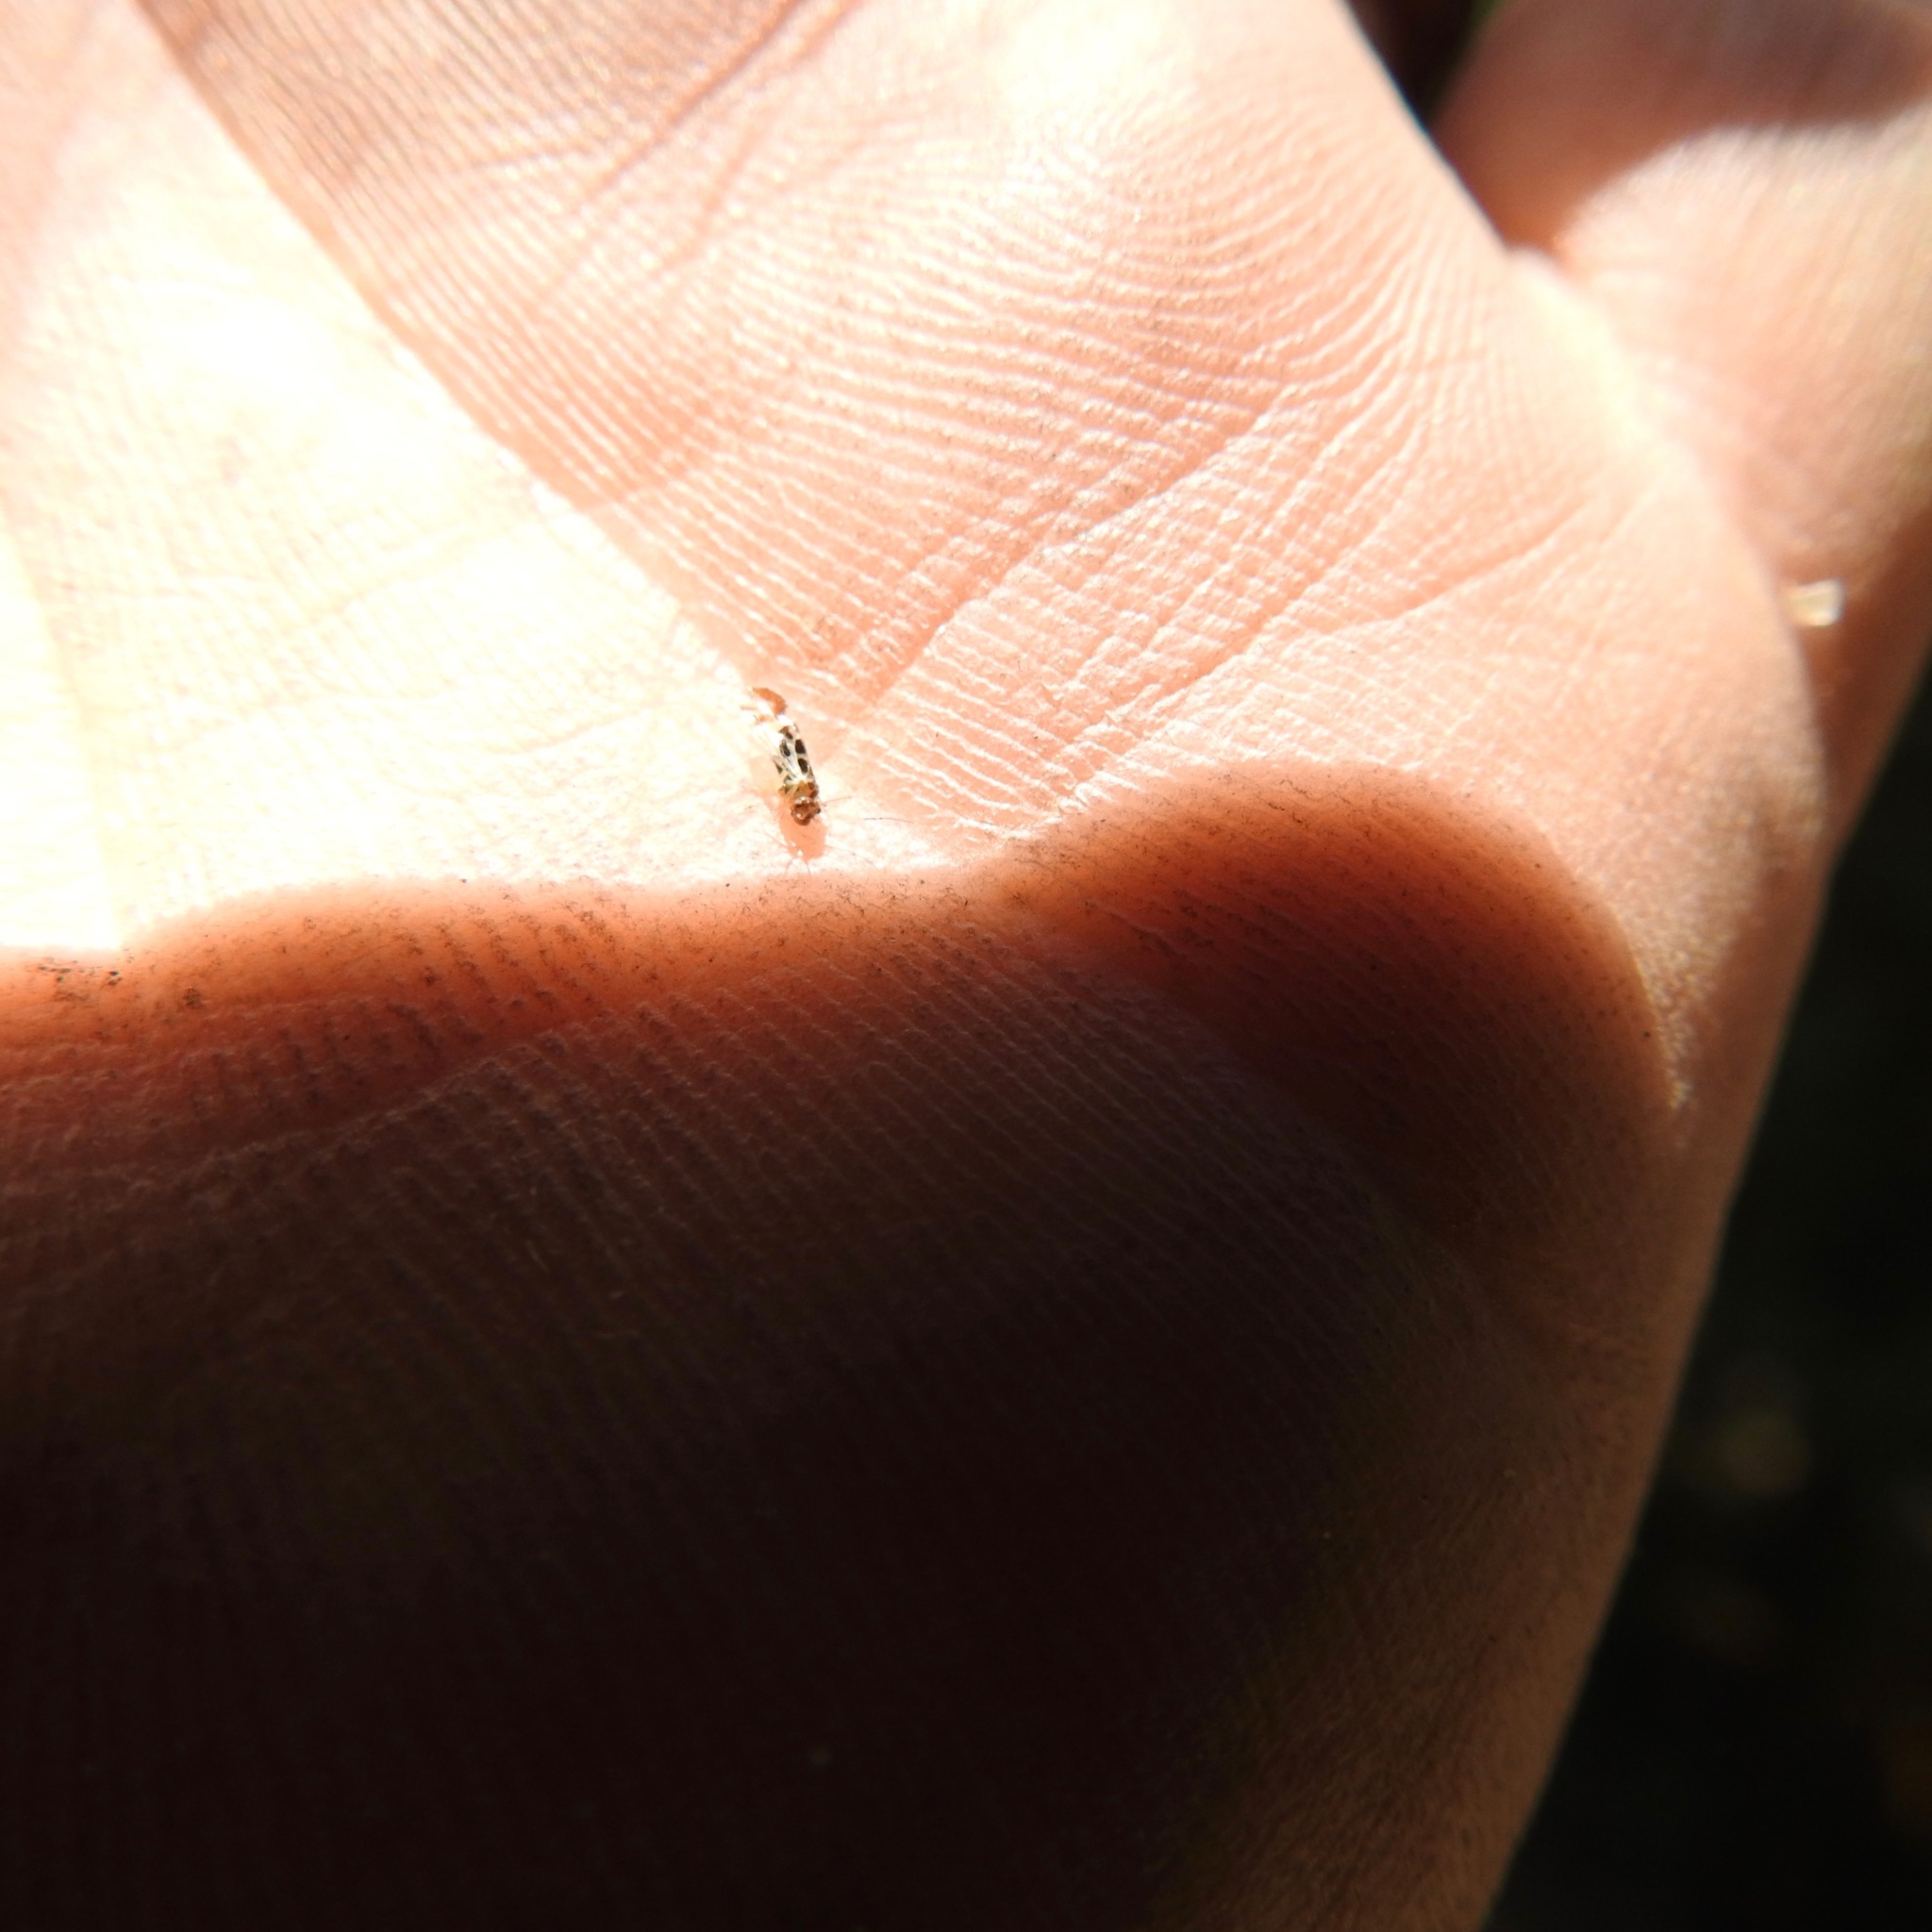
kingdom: Animalia
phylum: Arthropoda
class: Insecta
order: Psocodea
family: Stenopsocidae
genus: Graphopsocus
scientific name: Graphopsocus cruciatus
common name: Lizard bark louse
